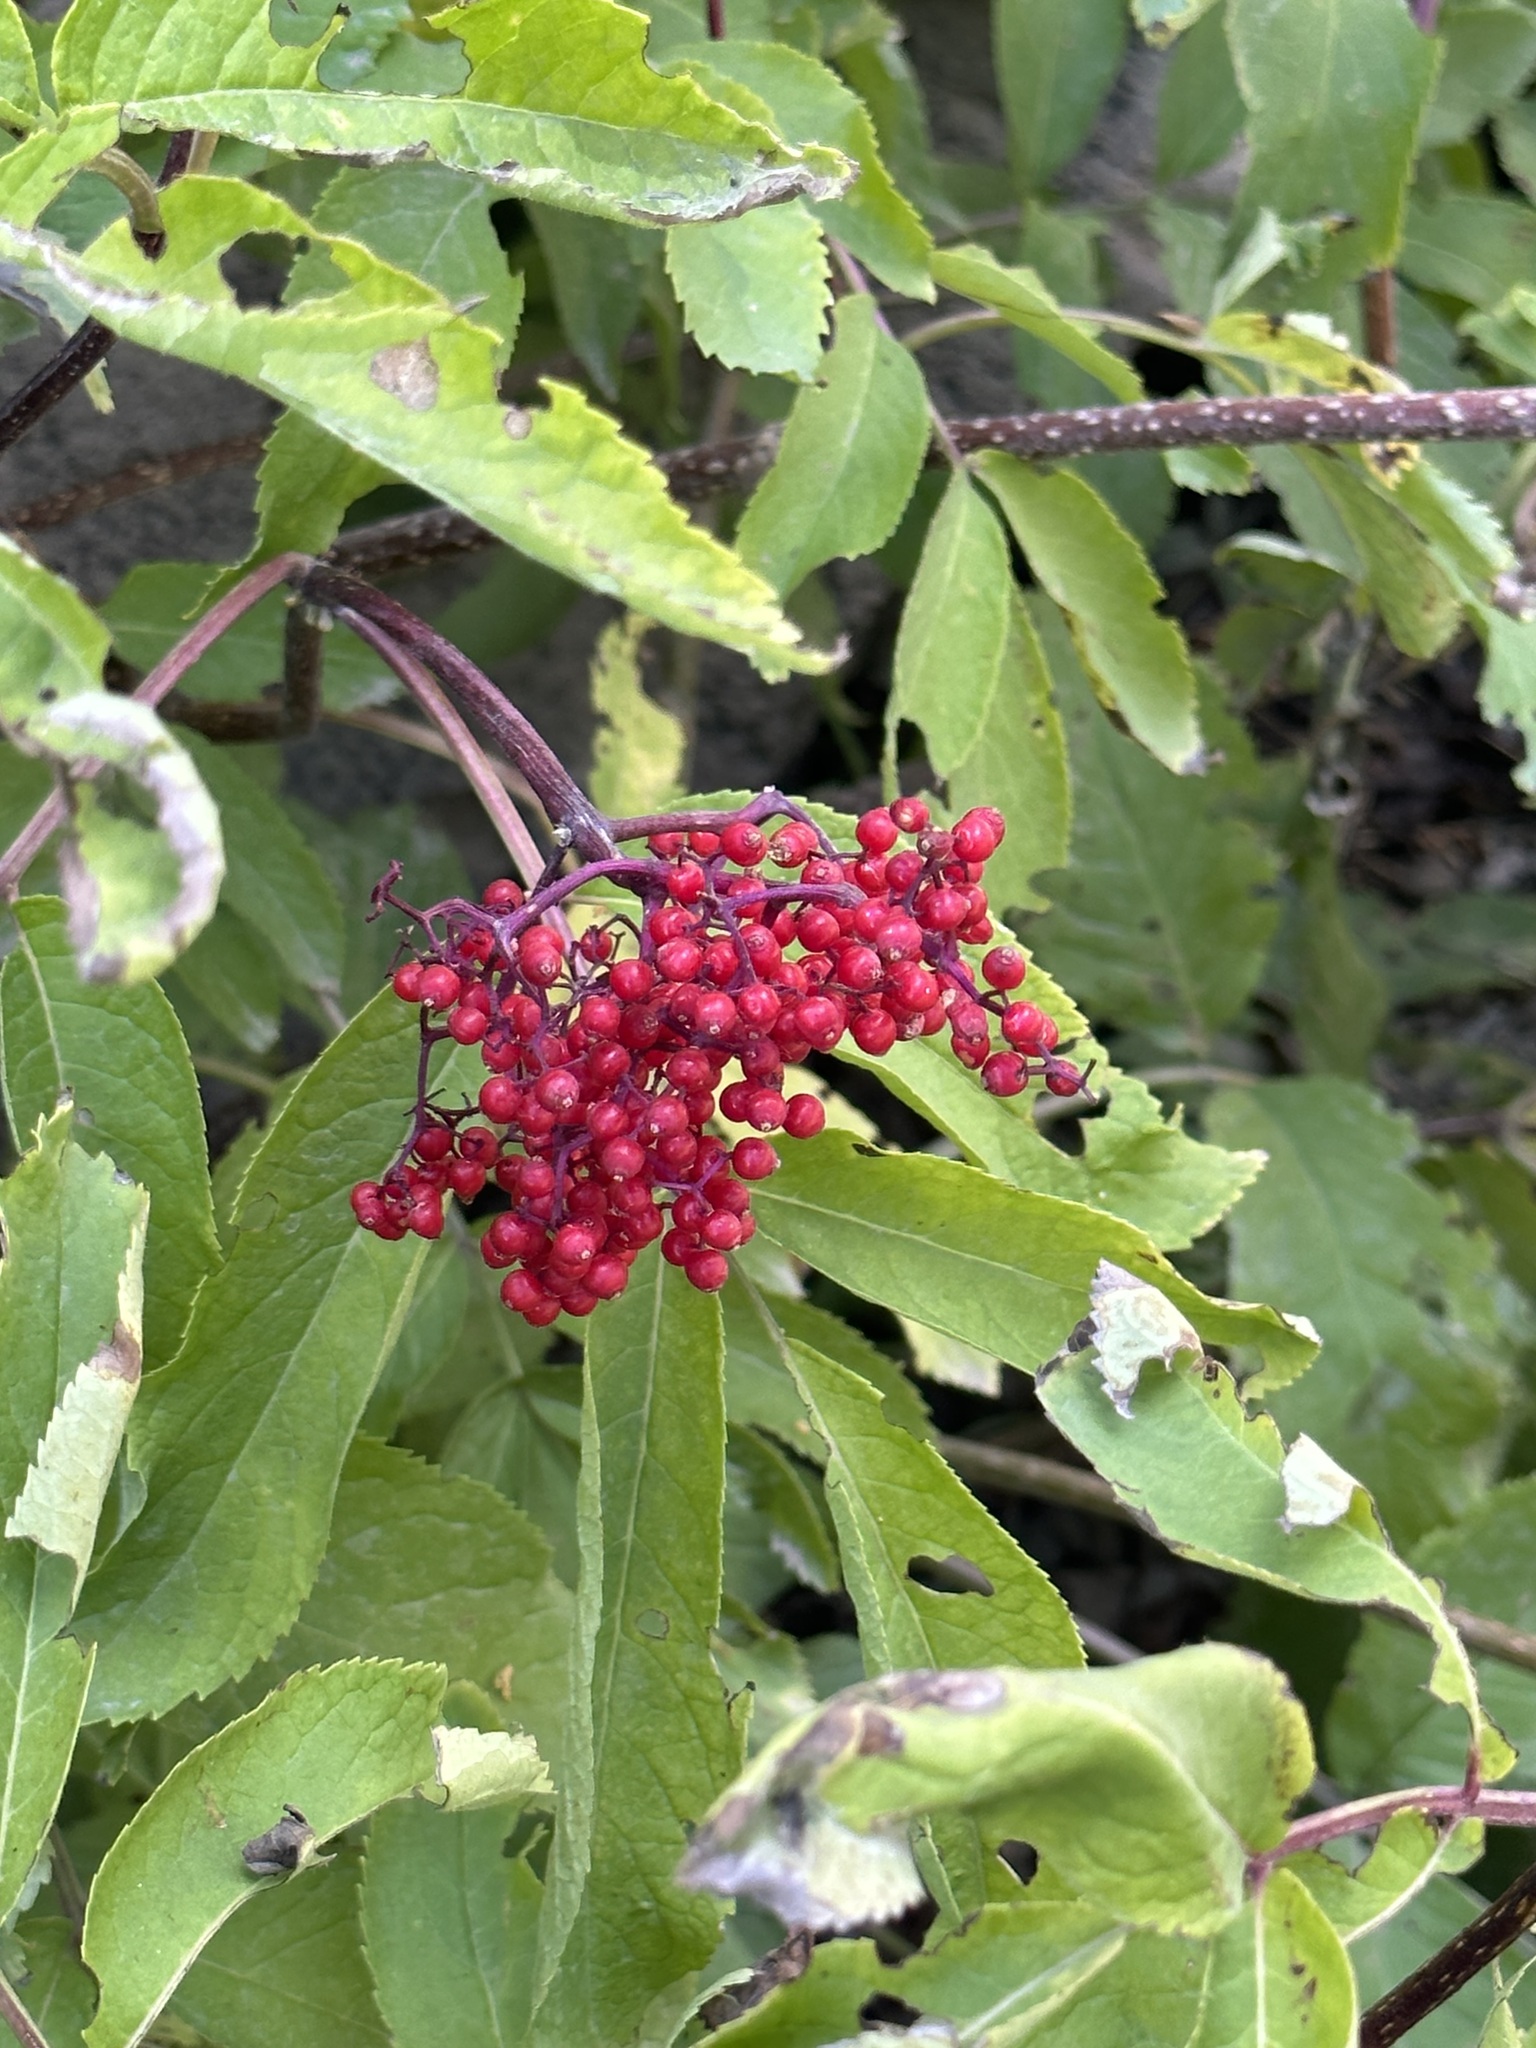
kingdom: Plantae
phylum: Tracheophyta
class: Magnoliopsida
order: Dipsacales
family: Viburnaceae
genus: Sambucus
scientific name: Sambucus racemosa
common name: Red-berried elder
